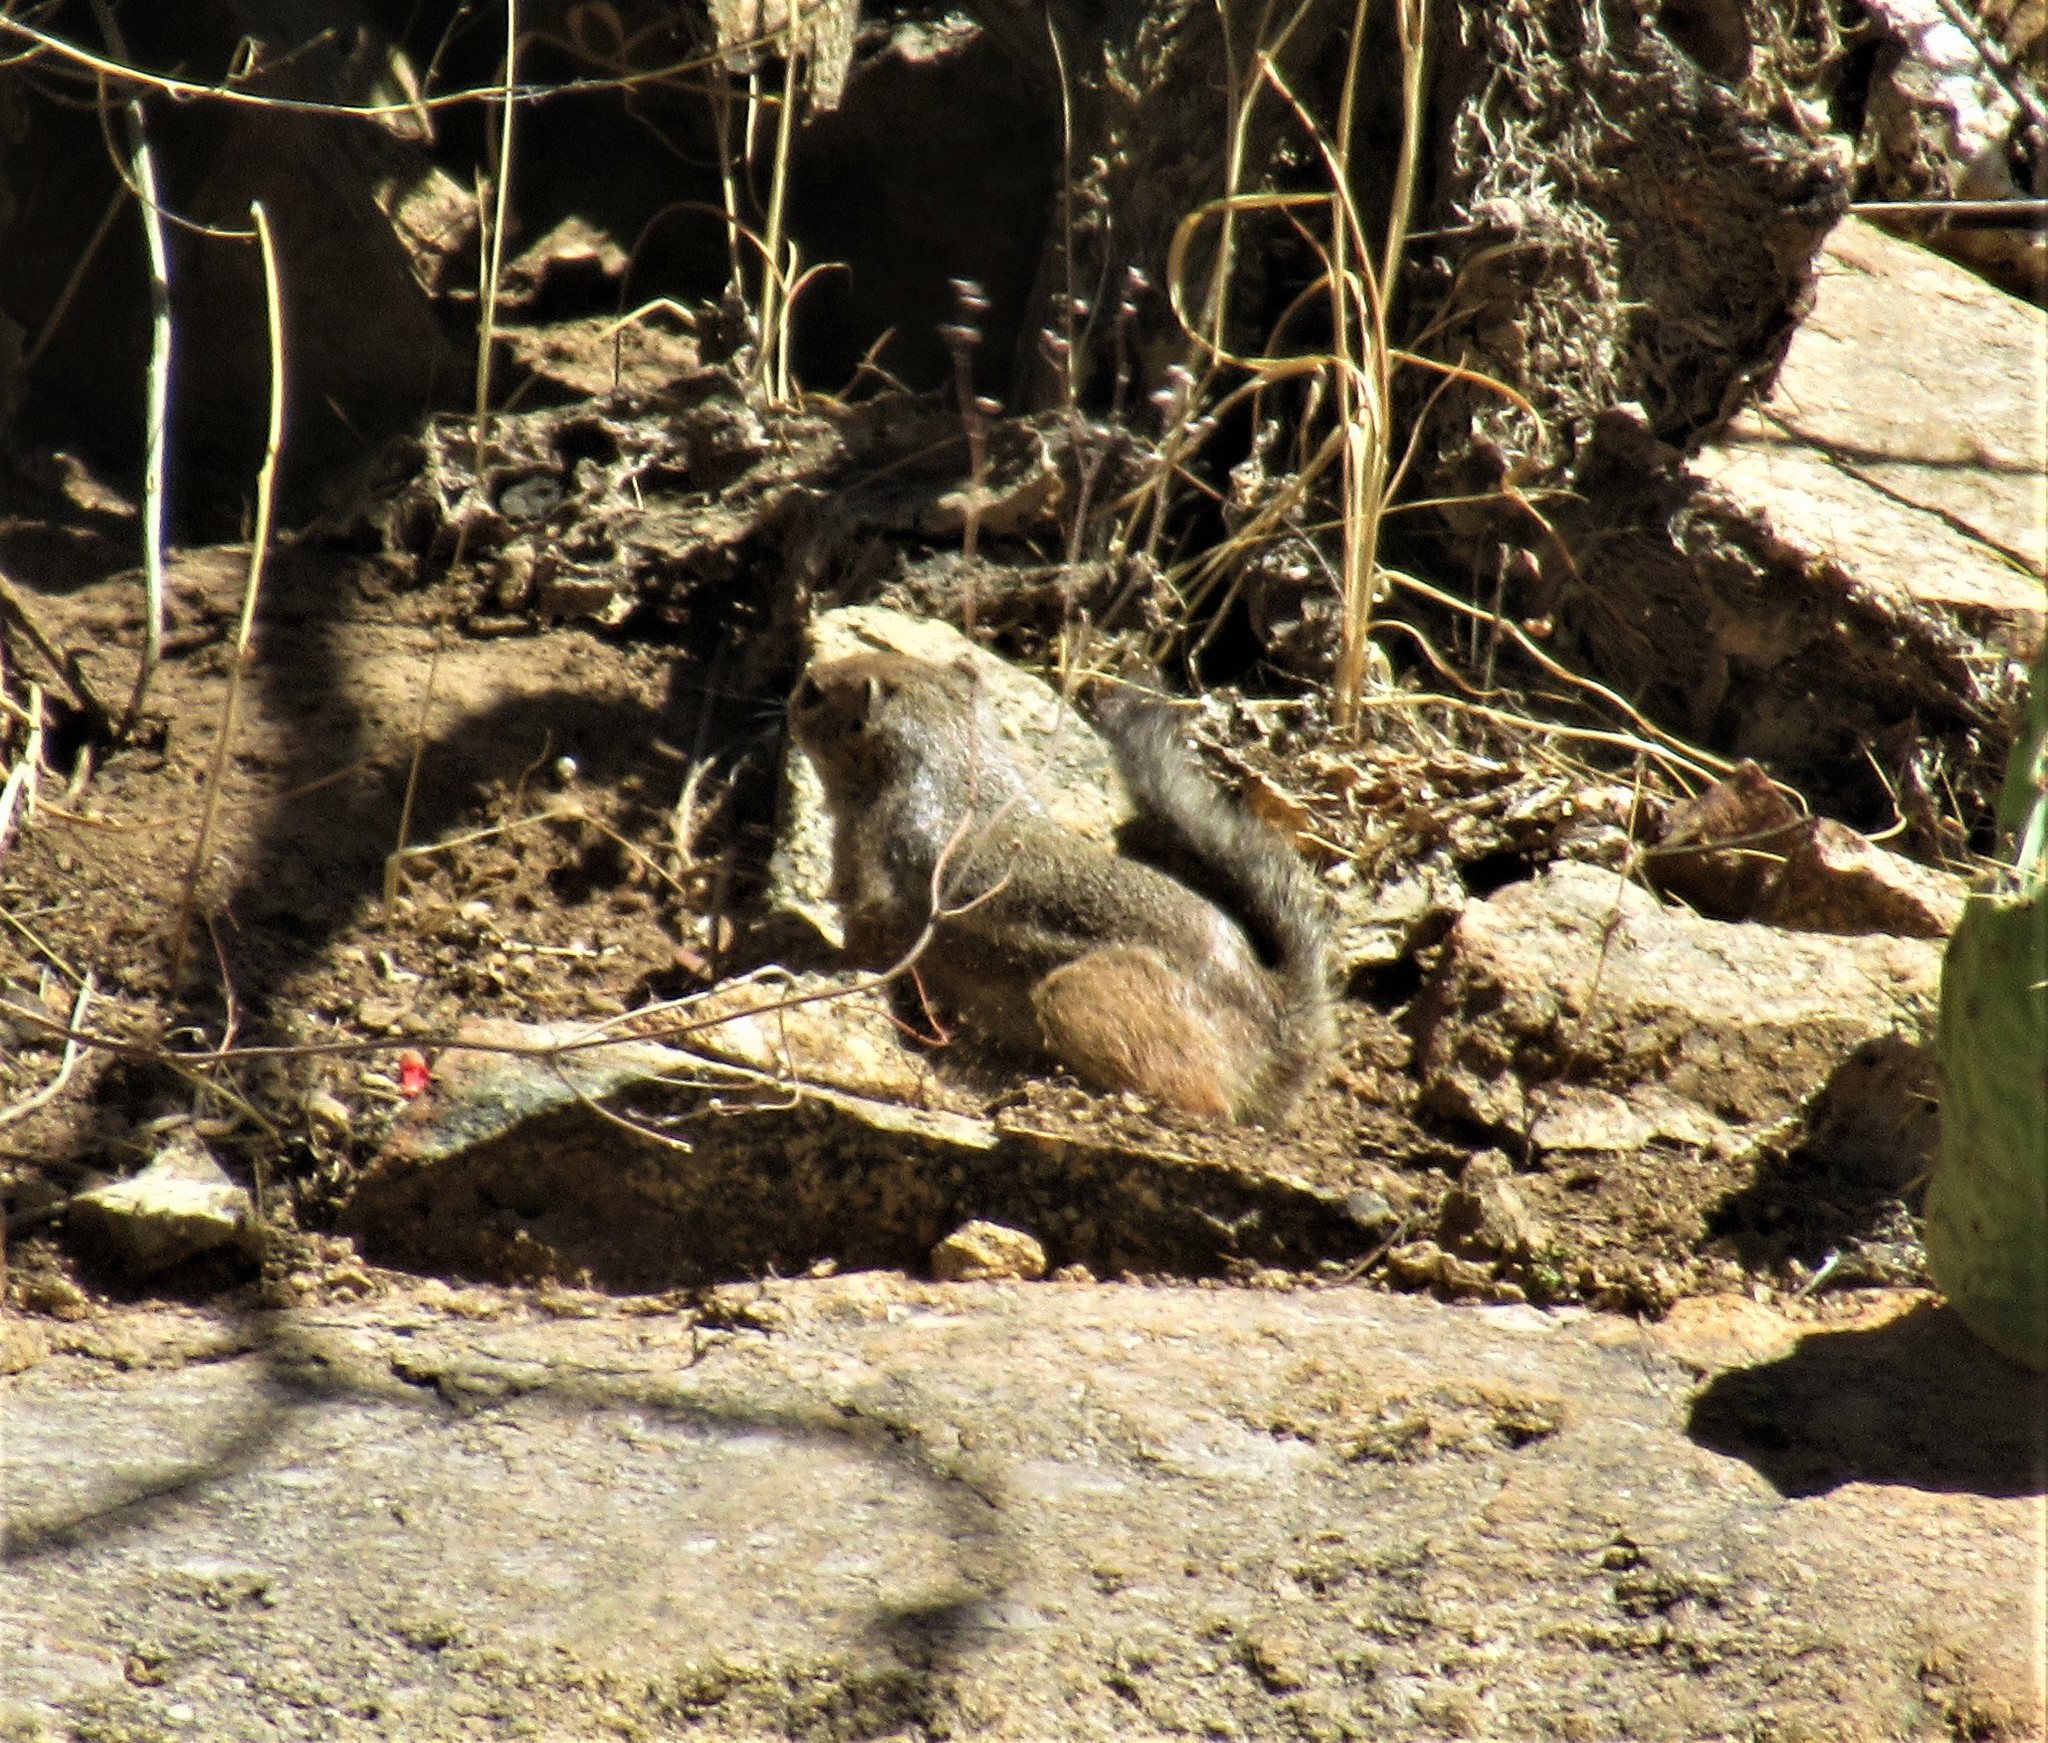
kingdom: Animalia
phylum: Chordata
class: Mammalia
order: Rodentia
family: Sciuridae
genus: Ammospermophilus
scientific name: Ammospermophilus harrisii
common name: Harris's antelope squirrel
